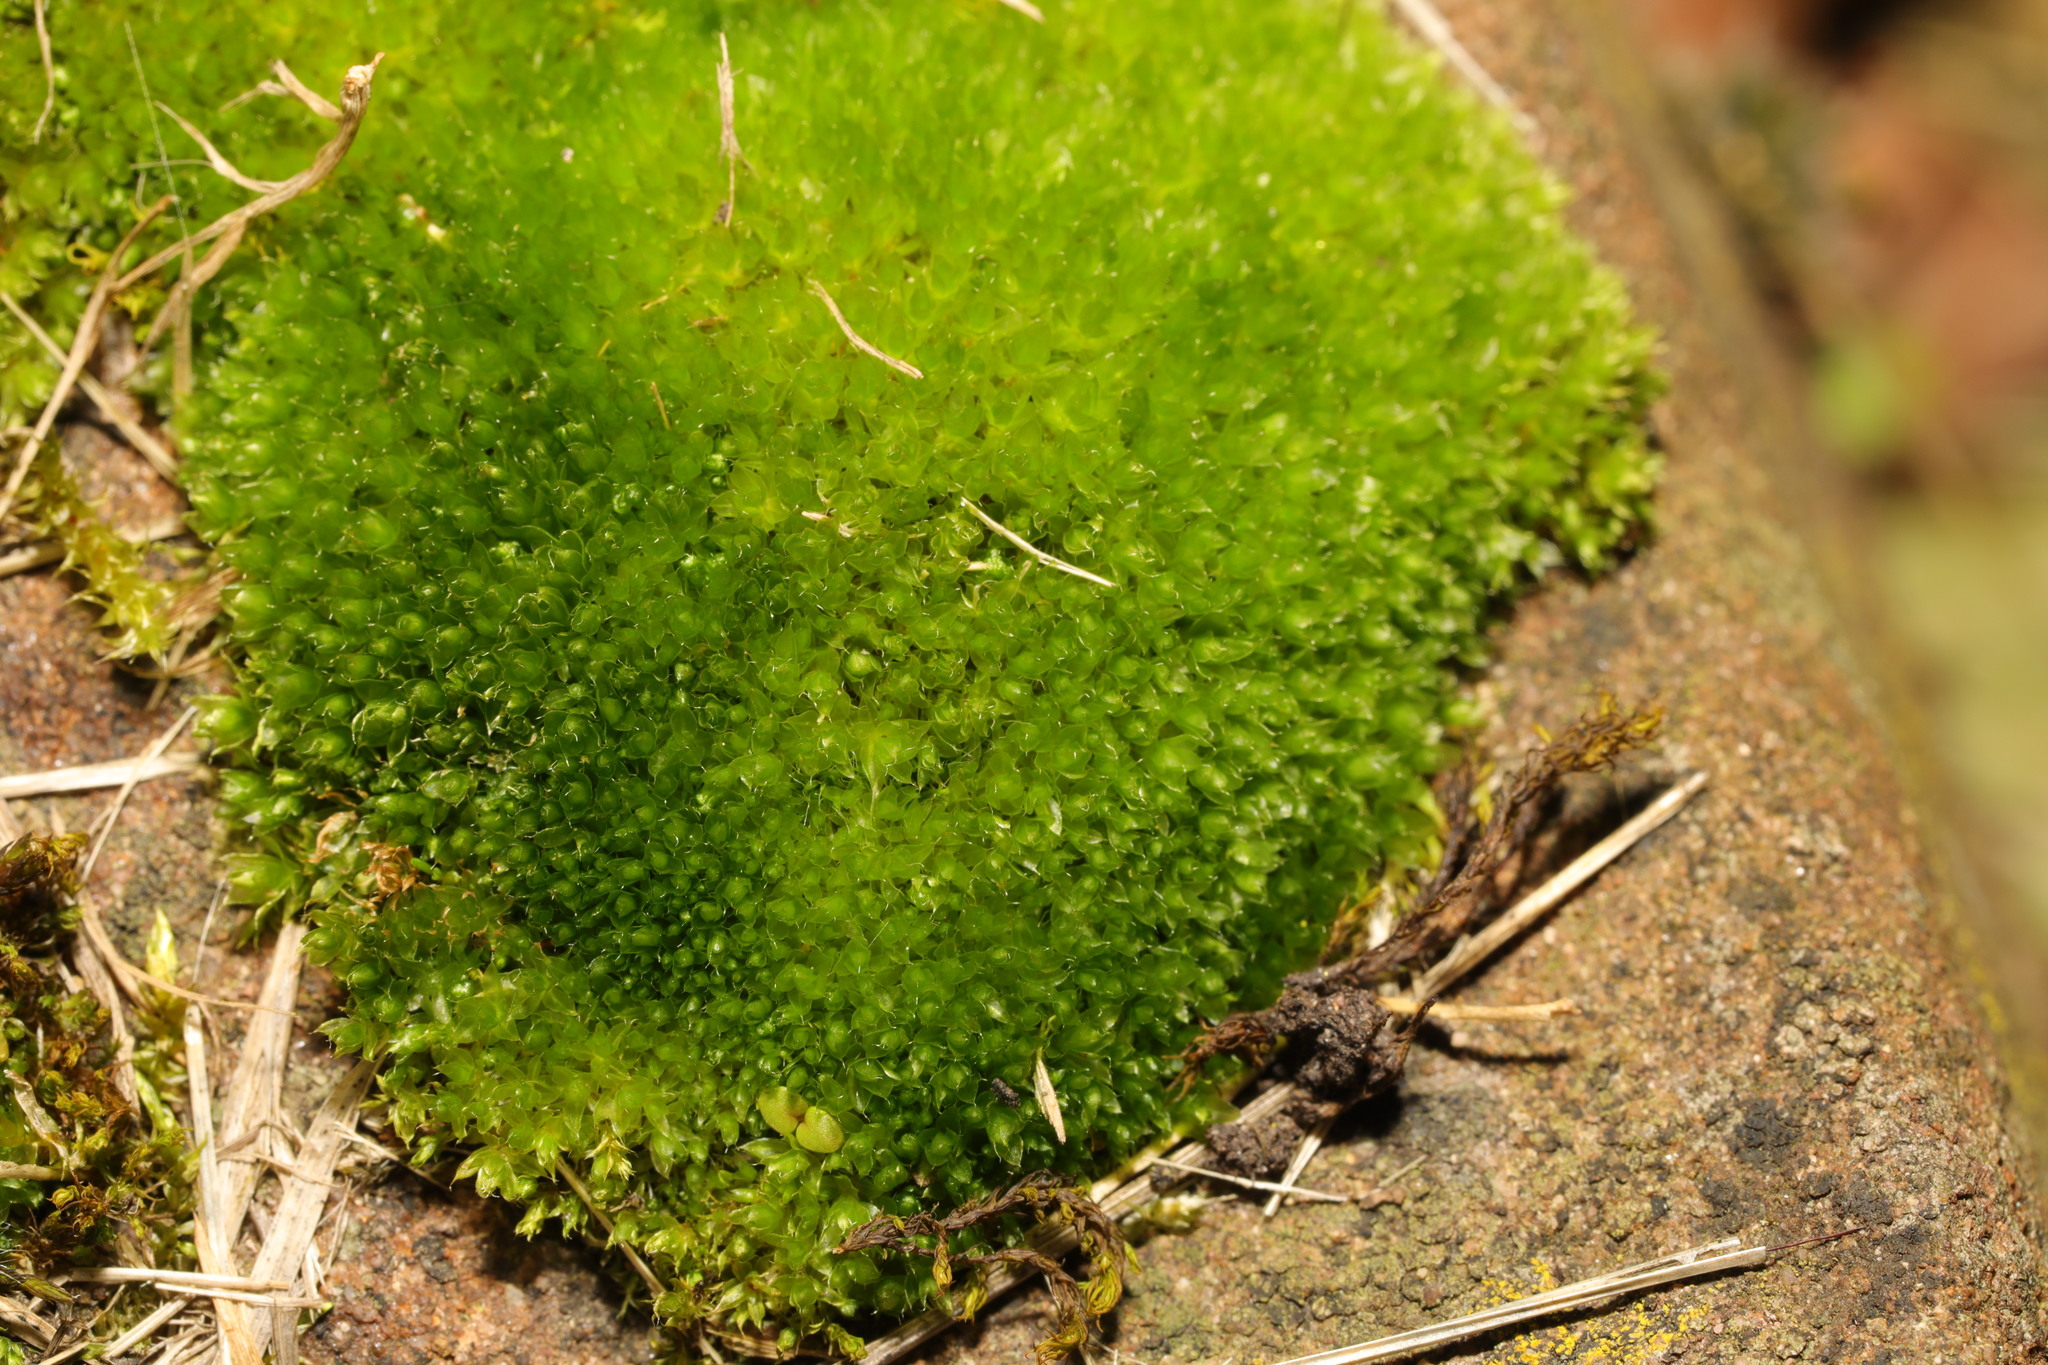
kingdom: Plantae
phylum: Bryophyta
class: Bryopsida
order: Bryales
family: Bryaceae
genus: Rosulabryum
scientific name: Rosulabryum capillare
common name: Capillary thread-moss
